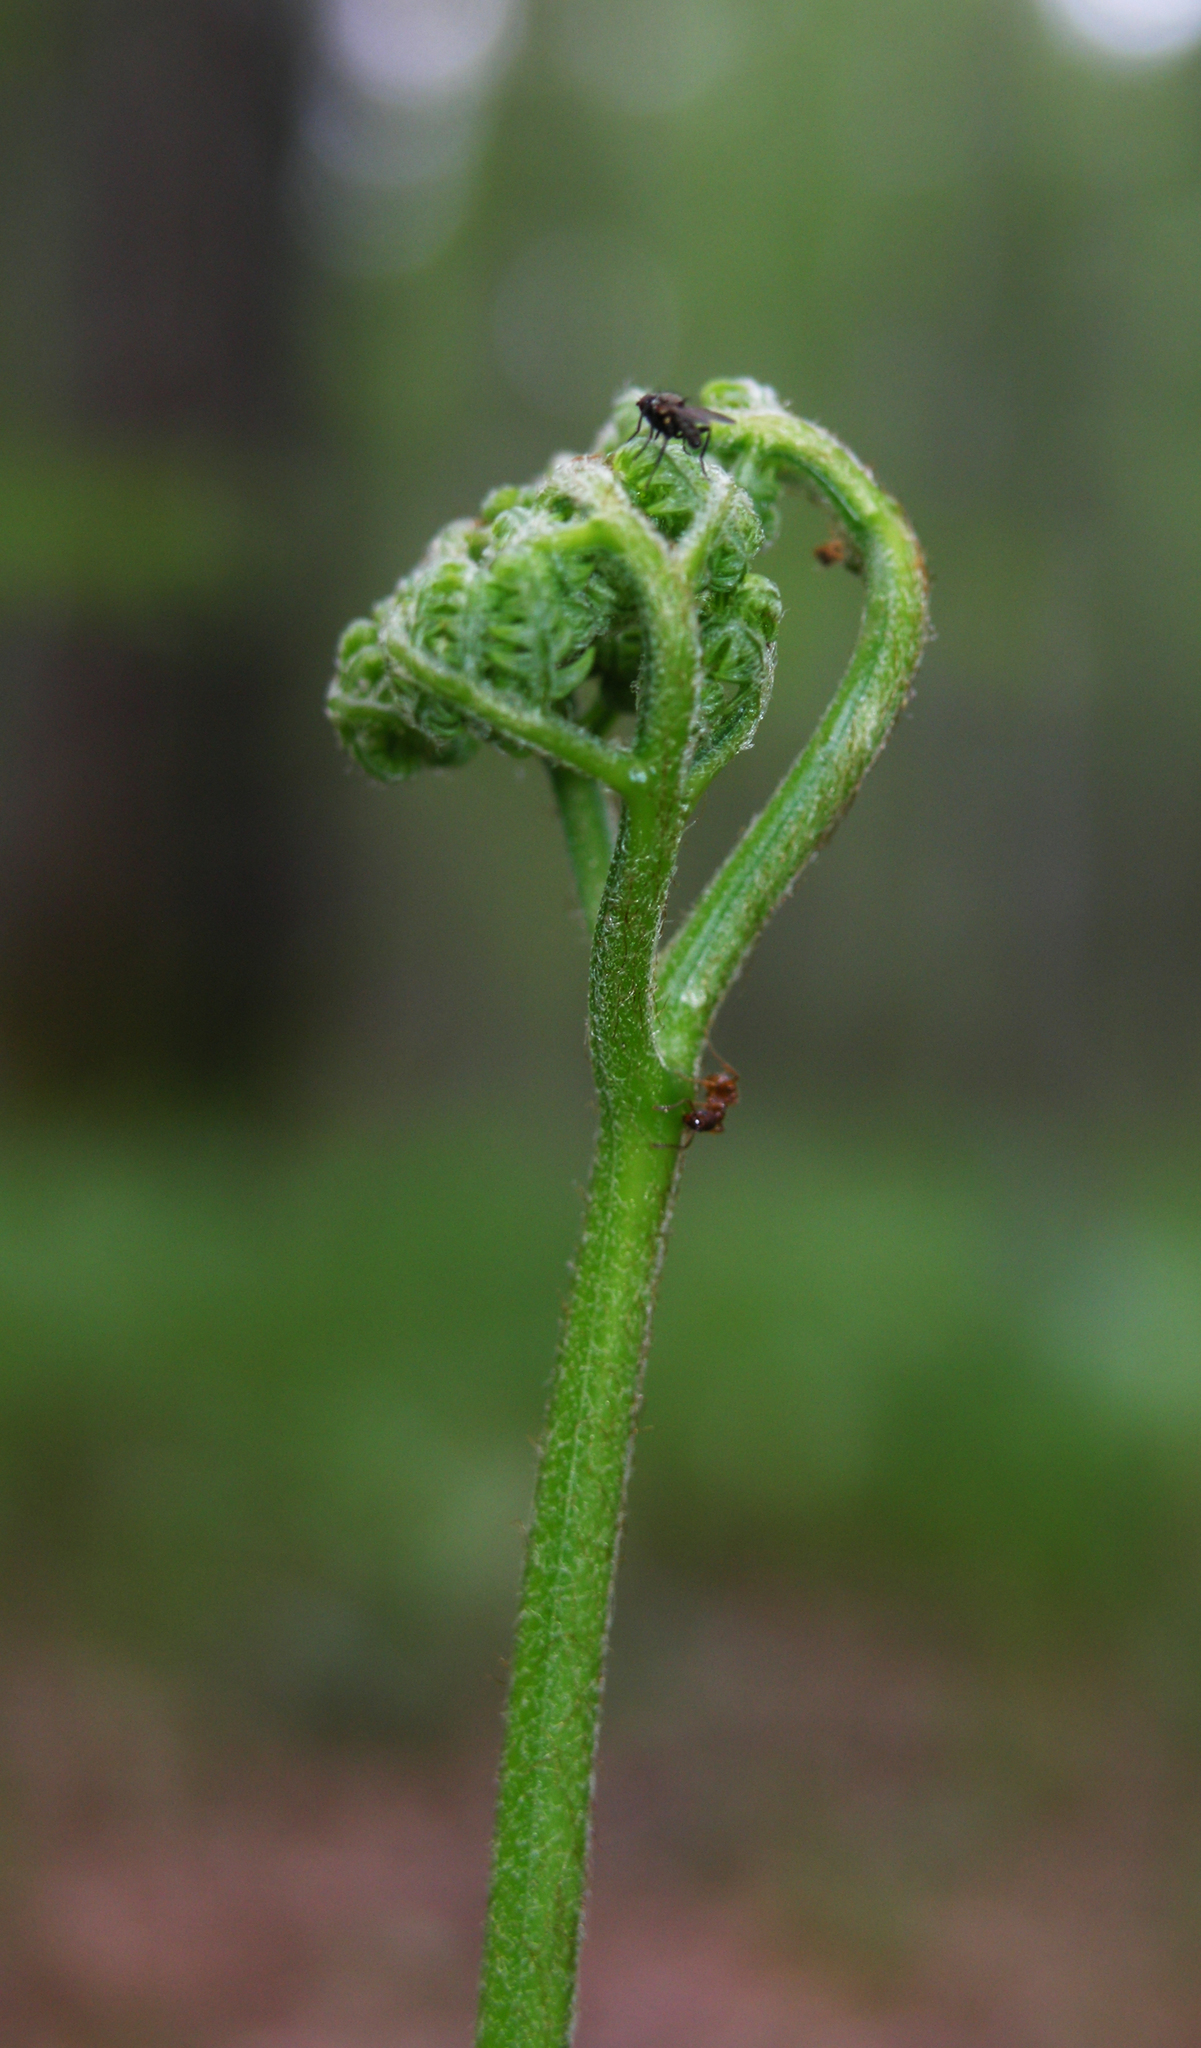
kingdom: Plantae
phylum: Tracheophyta
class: Polypodiopsida
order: Polypodiales
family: Dennstaedtiaceae
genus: Pteridium
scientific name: Pteridium aquilinum
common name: Bracken
